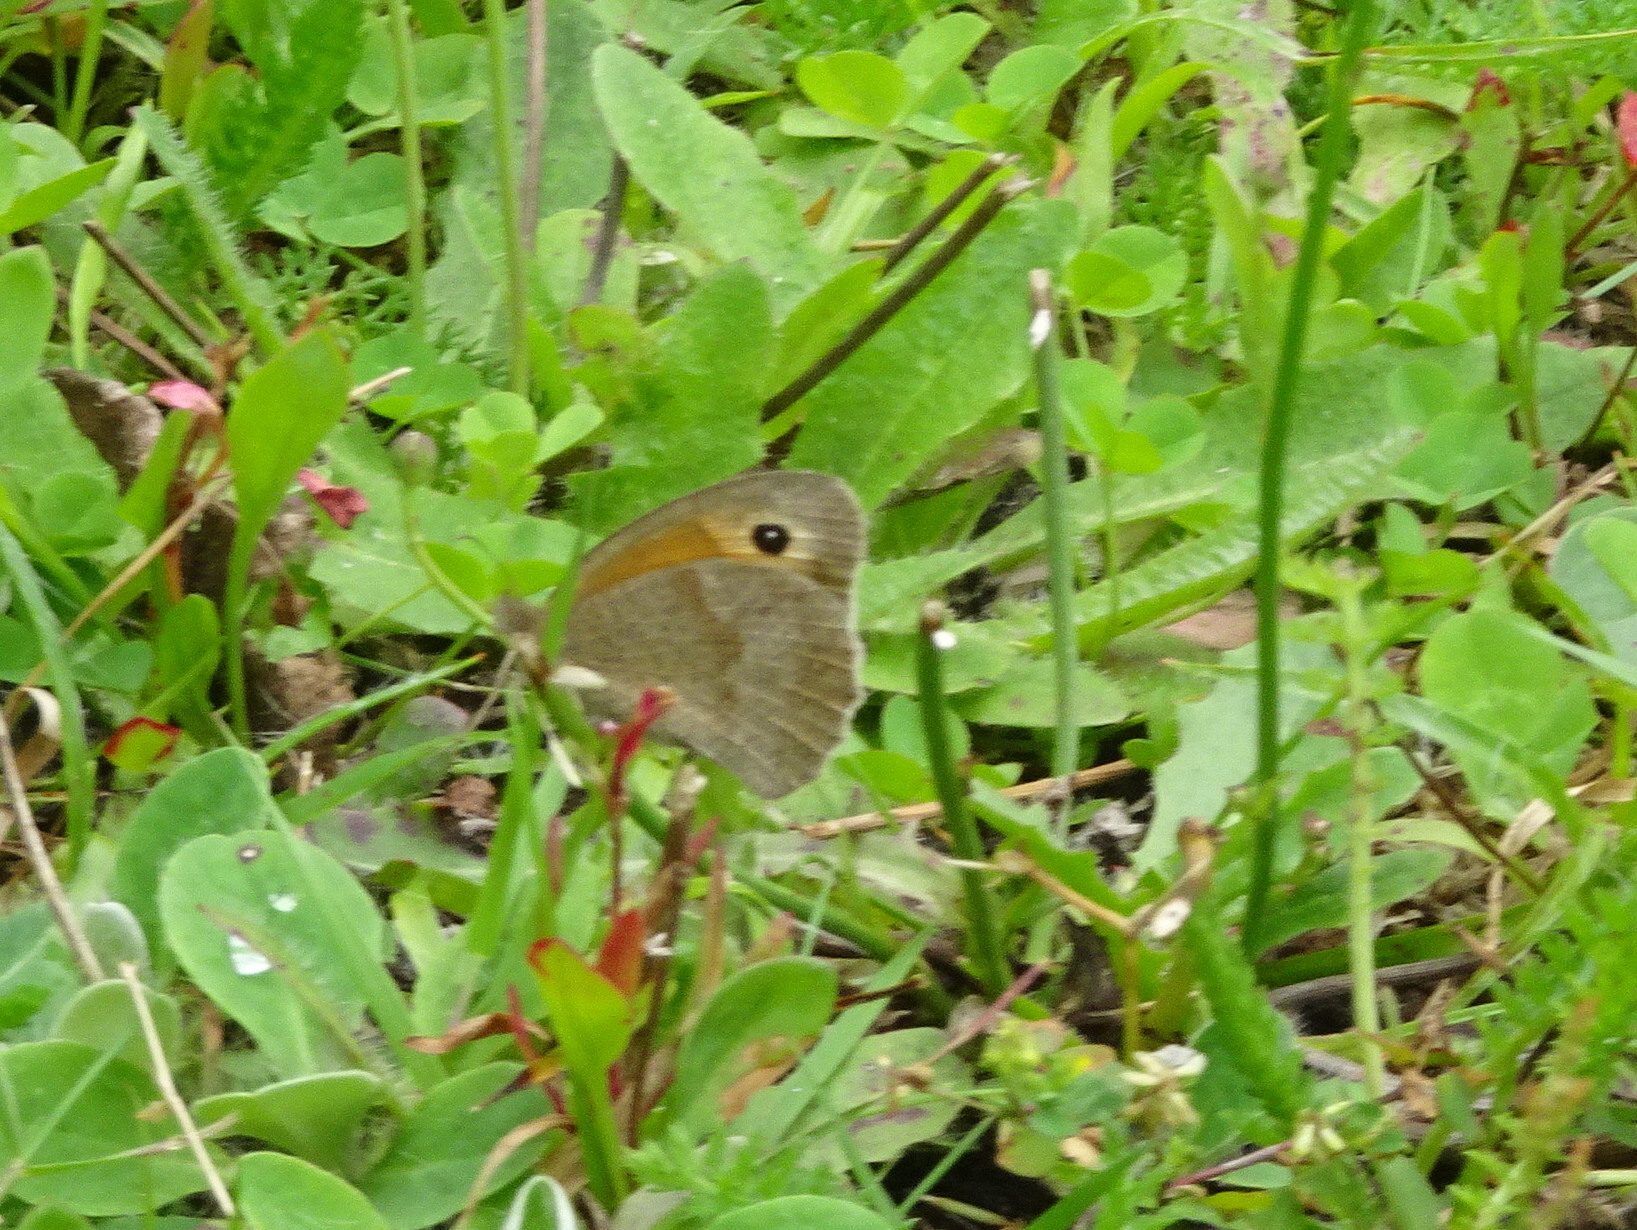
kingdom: Animalia
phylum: Arthropoda
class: Insecta
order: Lepidoptera
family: Nymphalidae
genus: Maniola
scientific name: Maniola jurtina
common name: Meadow brown
